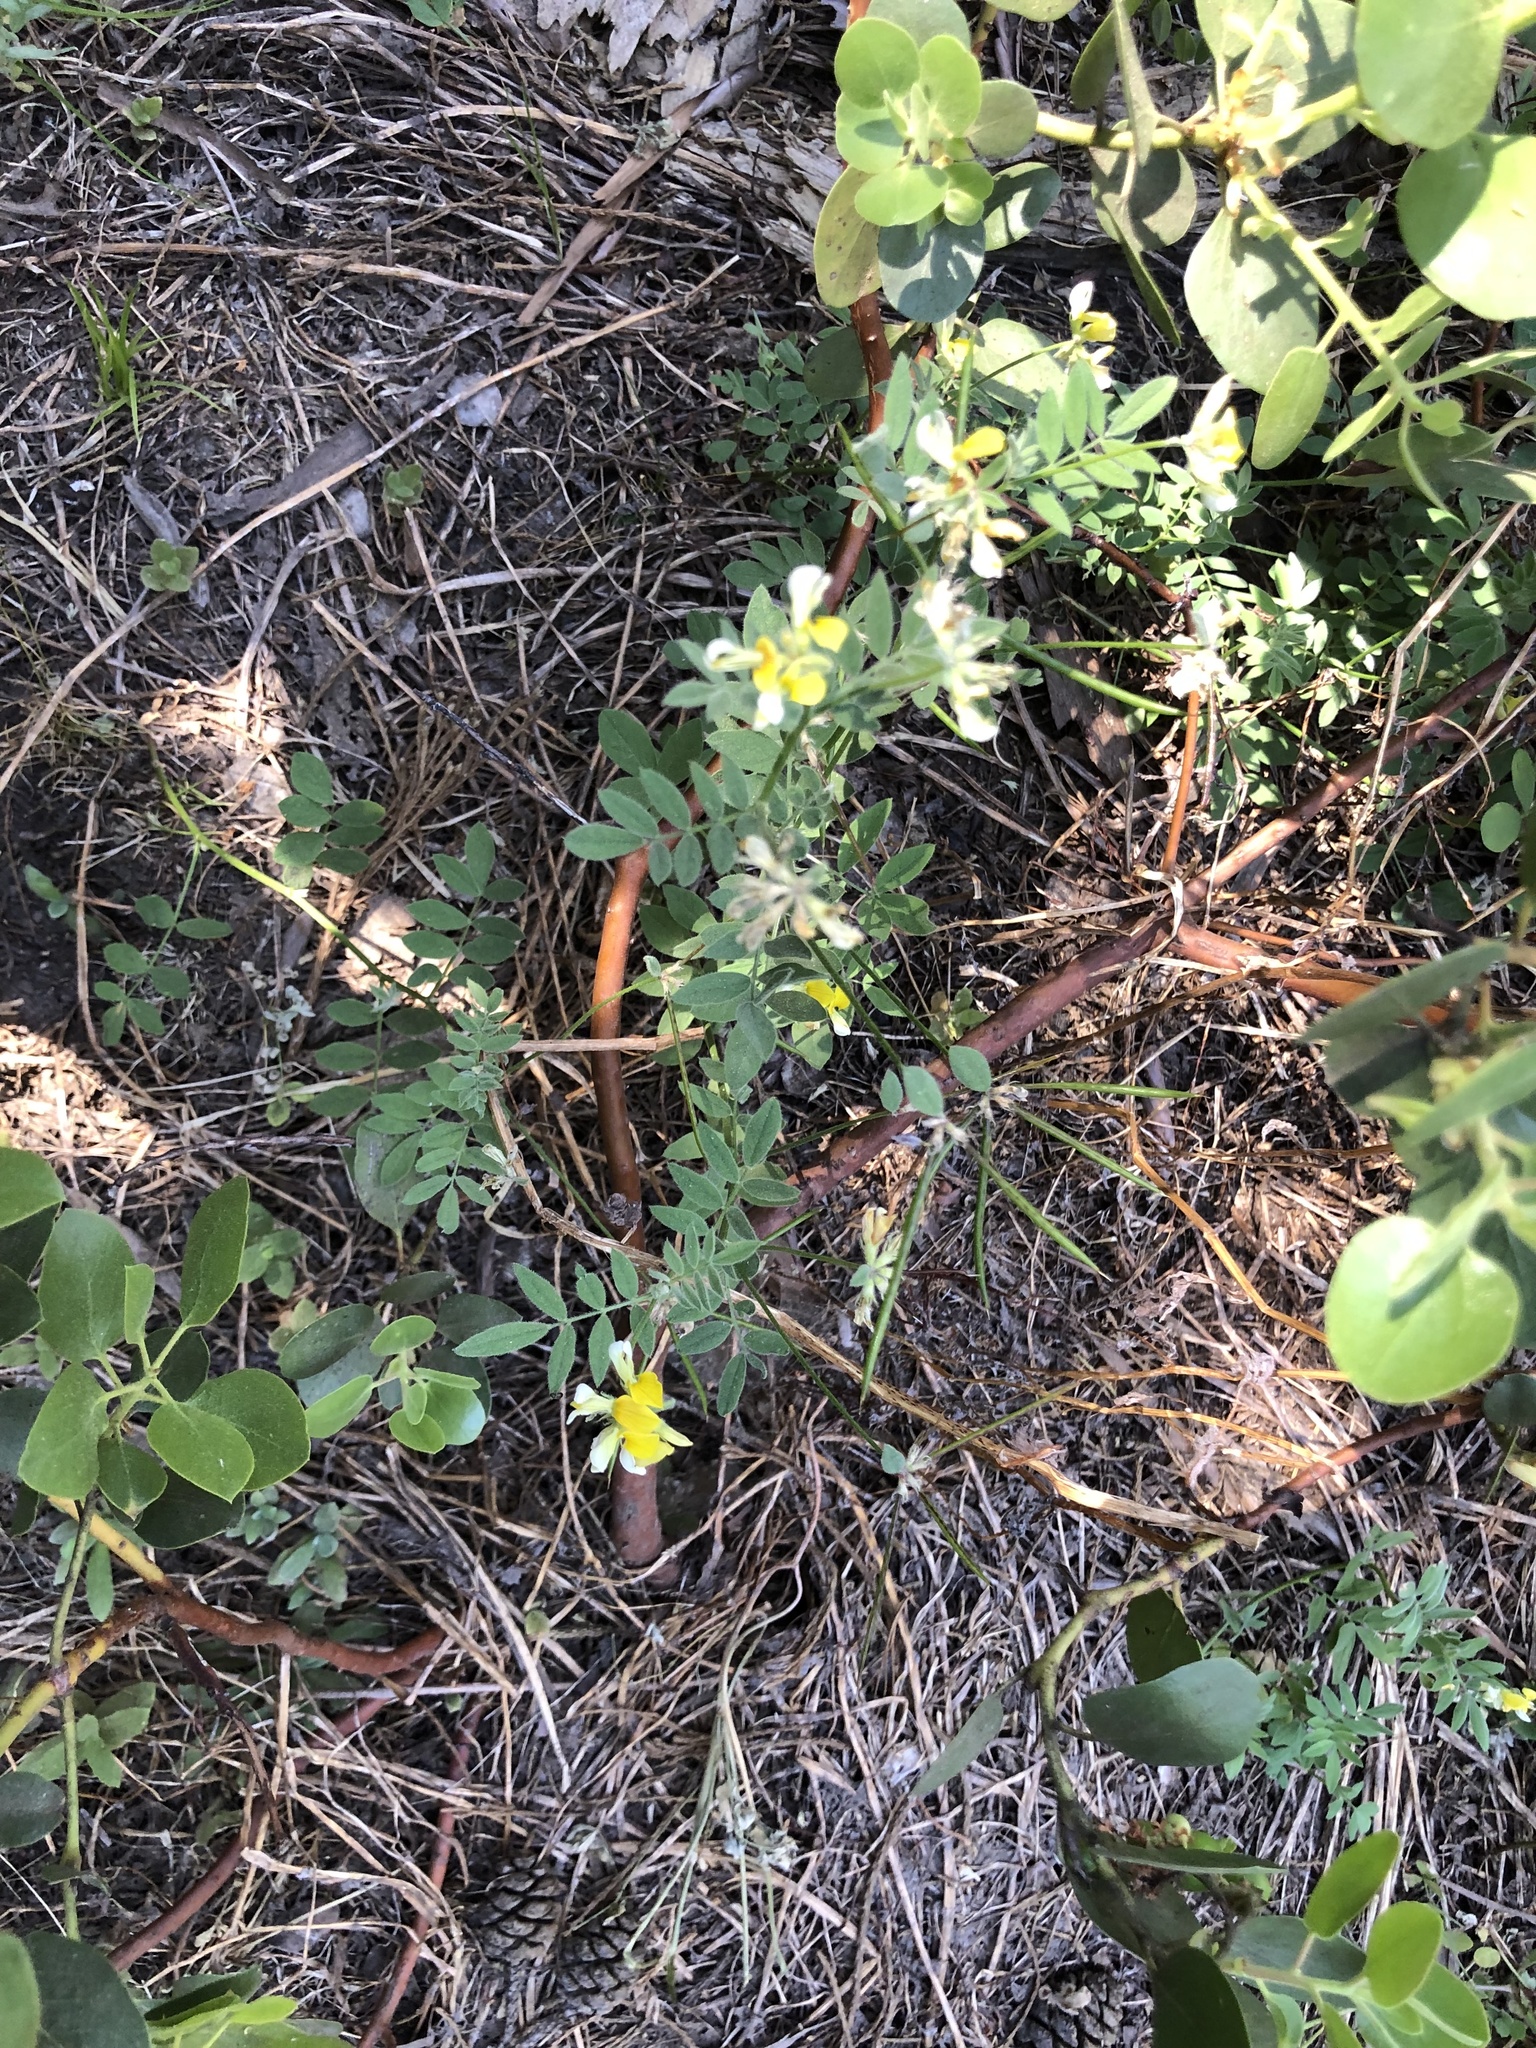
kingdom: Plantae
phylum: Tracheophyta
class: Magnoliopsida
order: Fabales
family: Fabaceae
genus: Hosackia
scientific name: Hosackia oblongifolia
